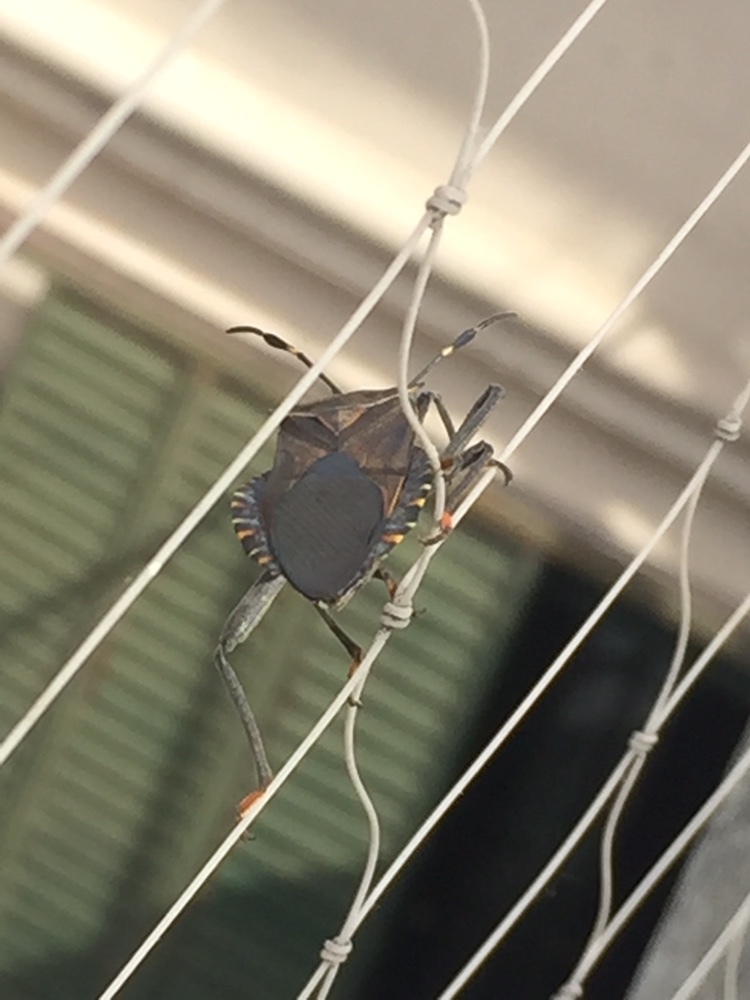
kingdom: Animalia
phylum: Arthropoda
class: Insecta
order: Hemiptera
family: Coreidae
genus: Pachylis
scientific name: Pachylis argentinus
